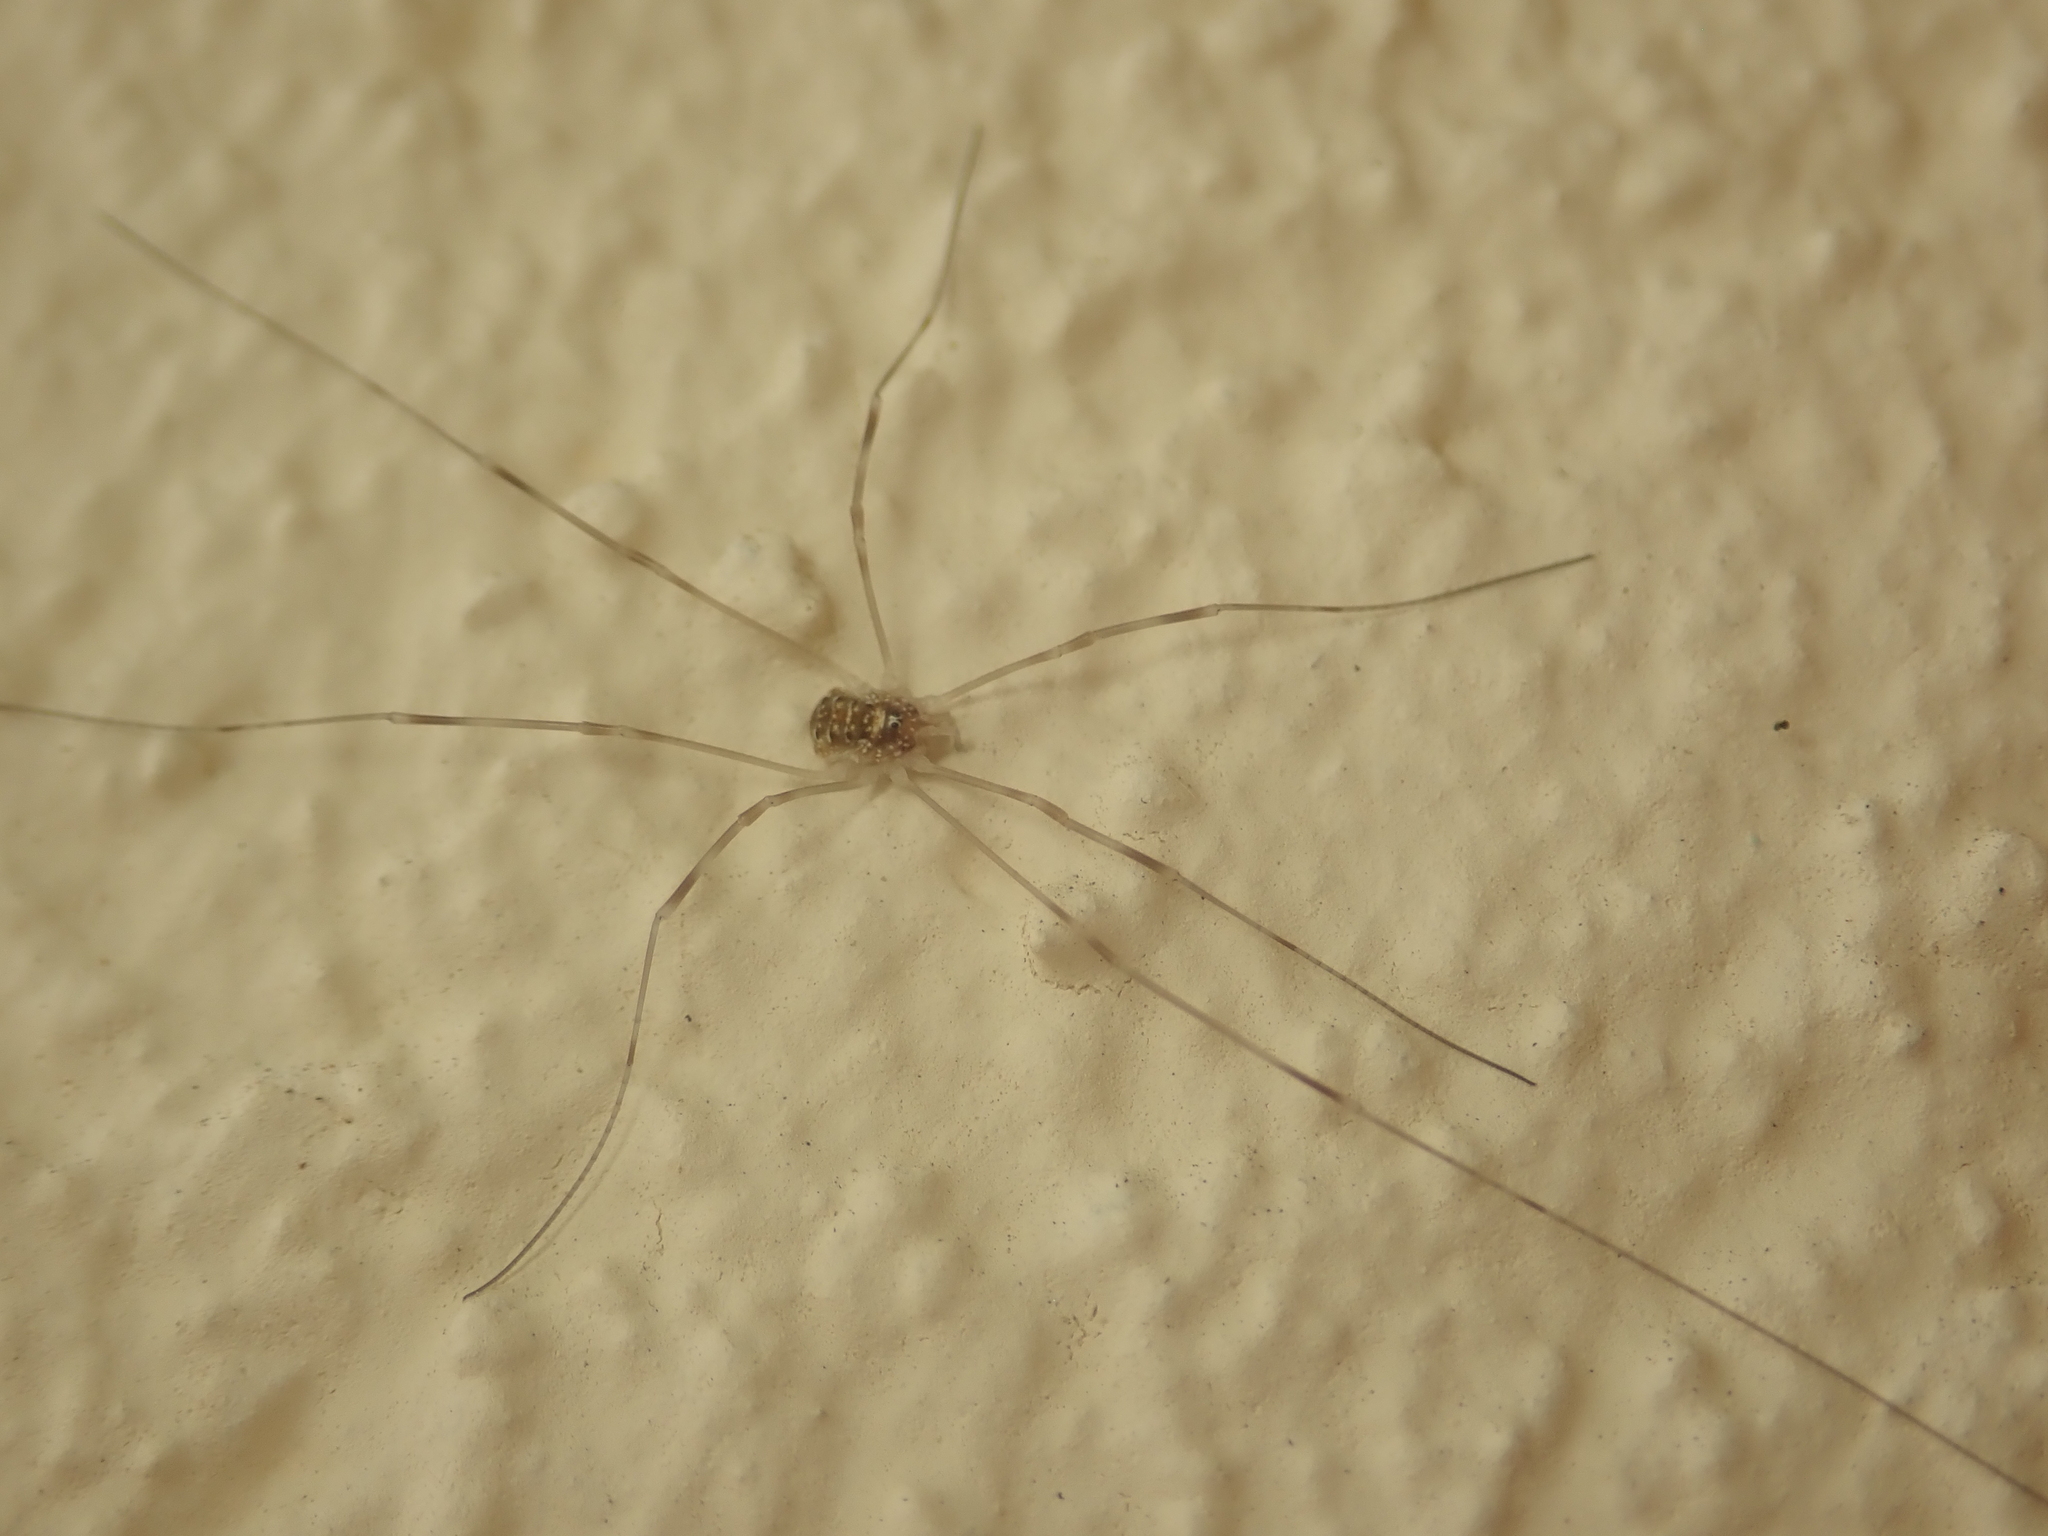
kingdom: Animalia
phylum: Arthropoda
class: Arachnida
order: Opiliones
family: Phalangiidae
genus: Opilio
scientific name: Opilio canestrinii
